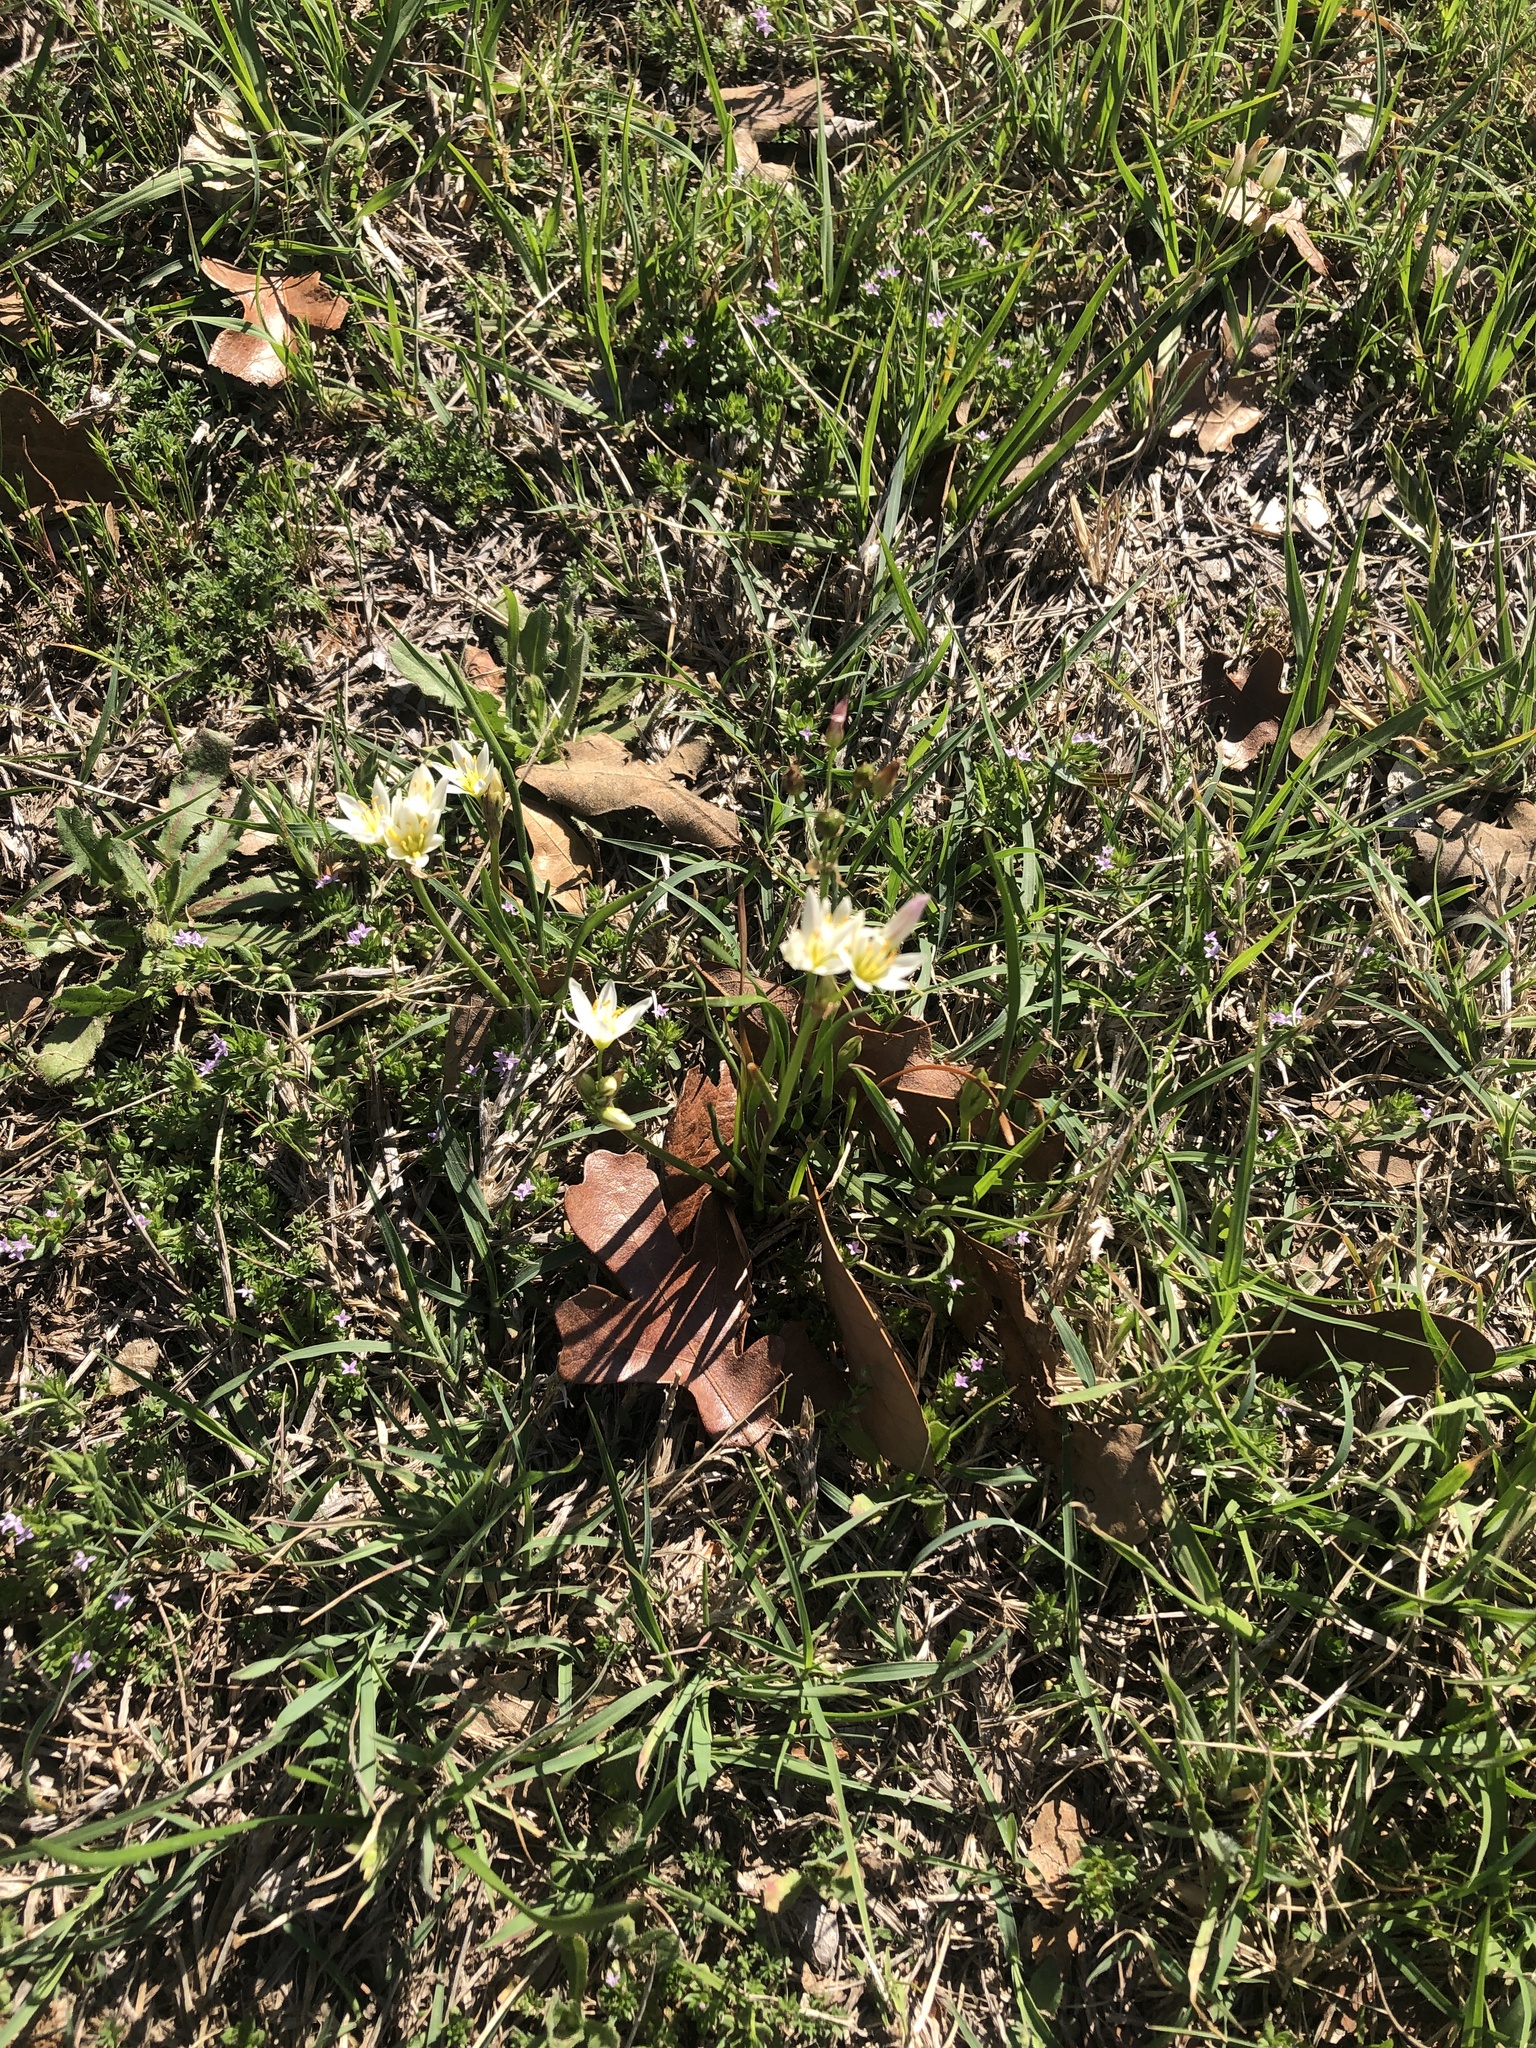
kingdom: Plantae
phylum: Tracheophyta
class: Liliopsida
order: Asparagales
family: Amaryllidaceae
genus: Nothoscordum
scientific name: Nothoscordum bivalve
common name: Crow-poison
